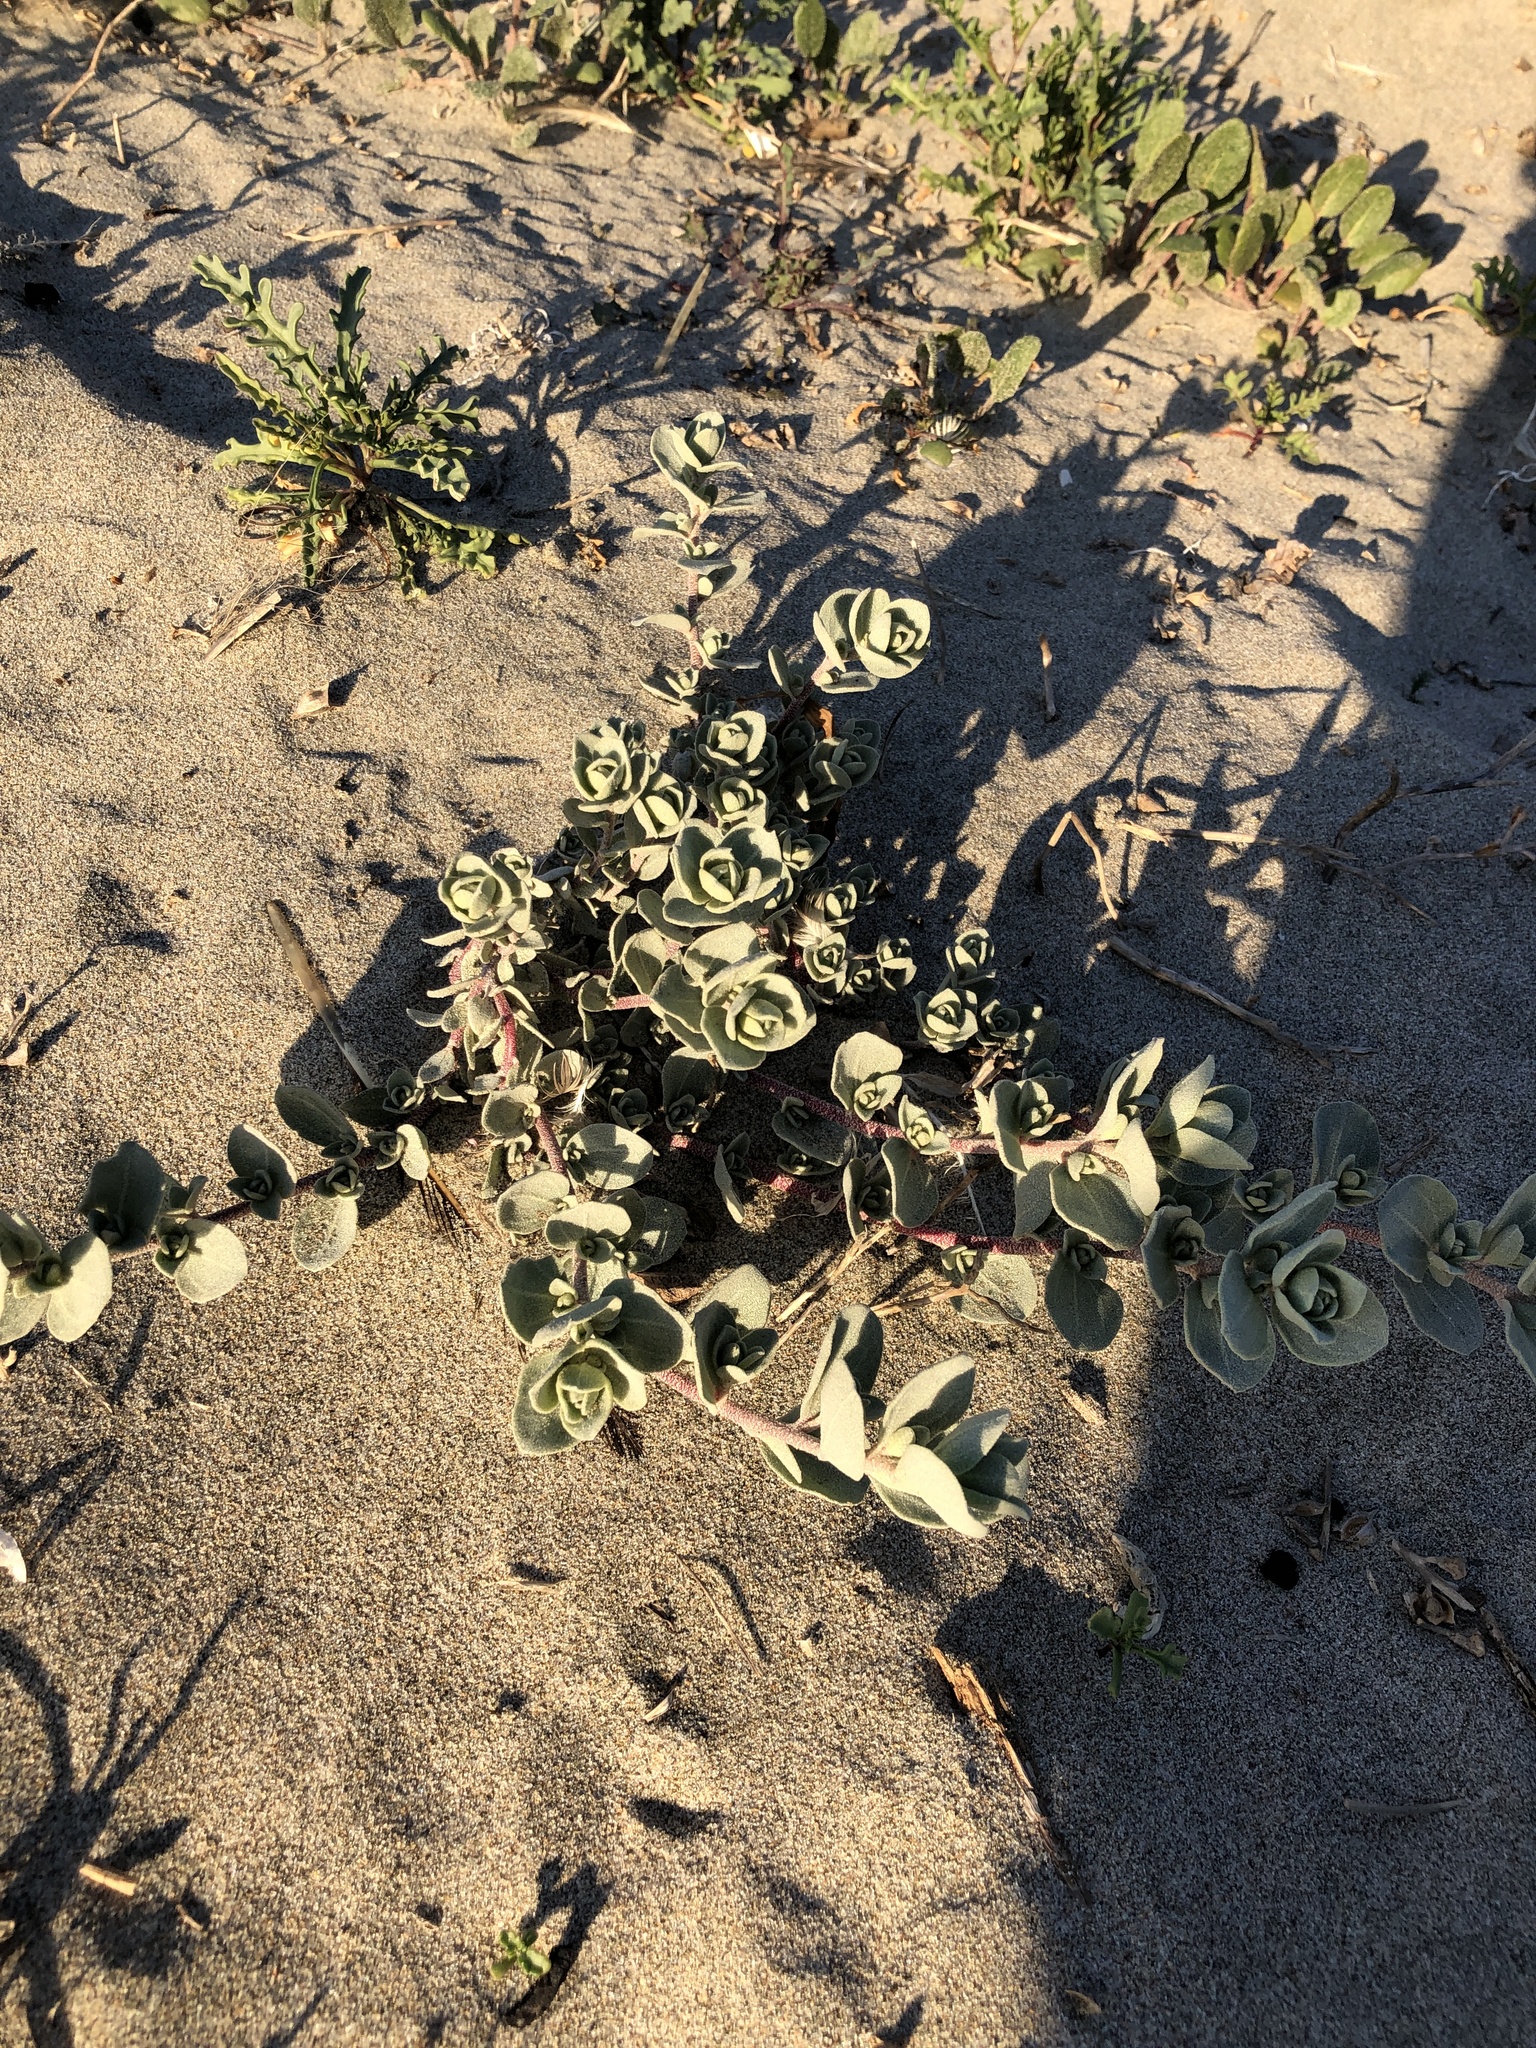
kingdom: Plantae
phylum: Tracheophyta
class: Magnoliopsida
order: Caryophyllales
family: Amaranthaceae
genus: Atriplex
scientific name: Atriplex leucophylla
